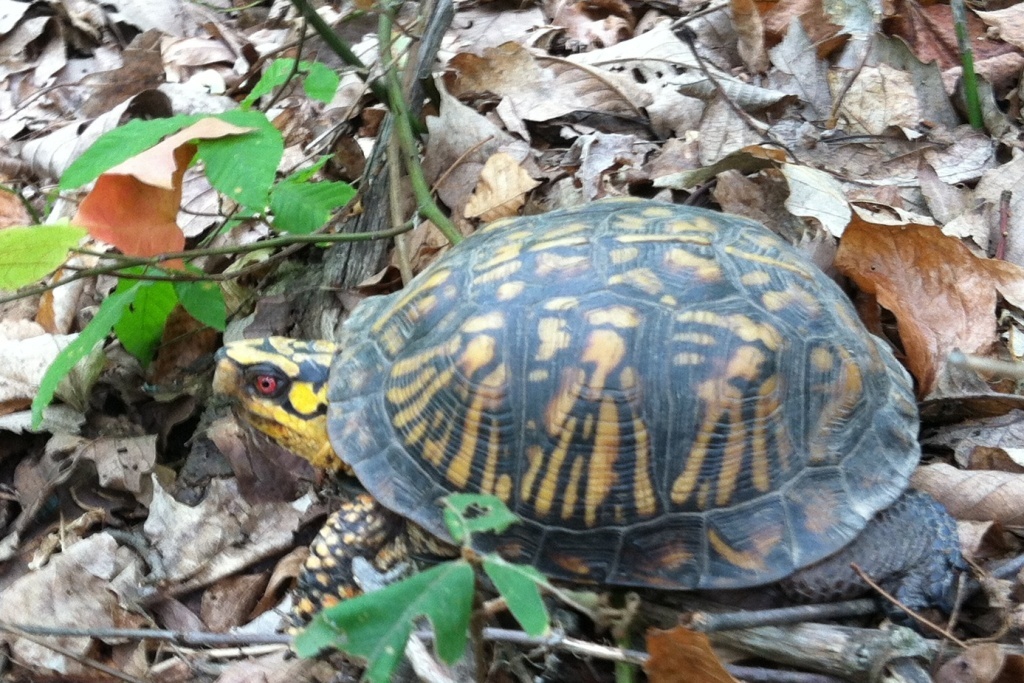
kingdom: Animalia
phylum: Chordata
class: Testudines
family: Emydidae
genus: Terrapene
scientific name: Terrapene carolina
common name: Common box turtle
